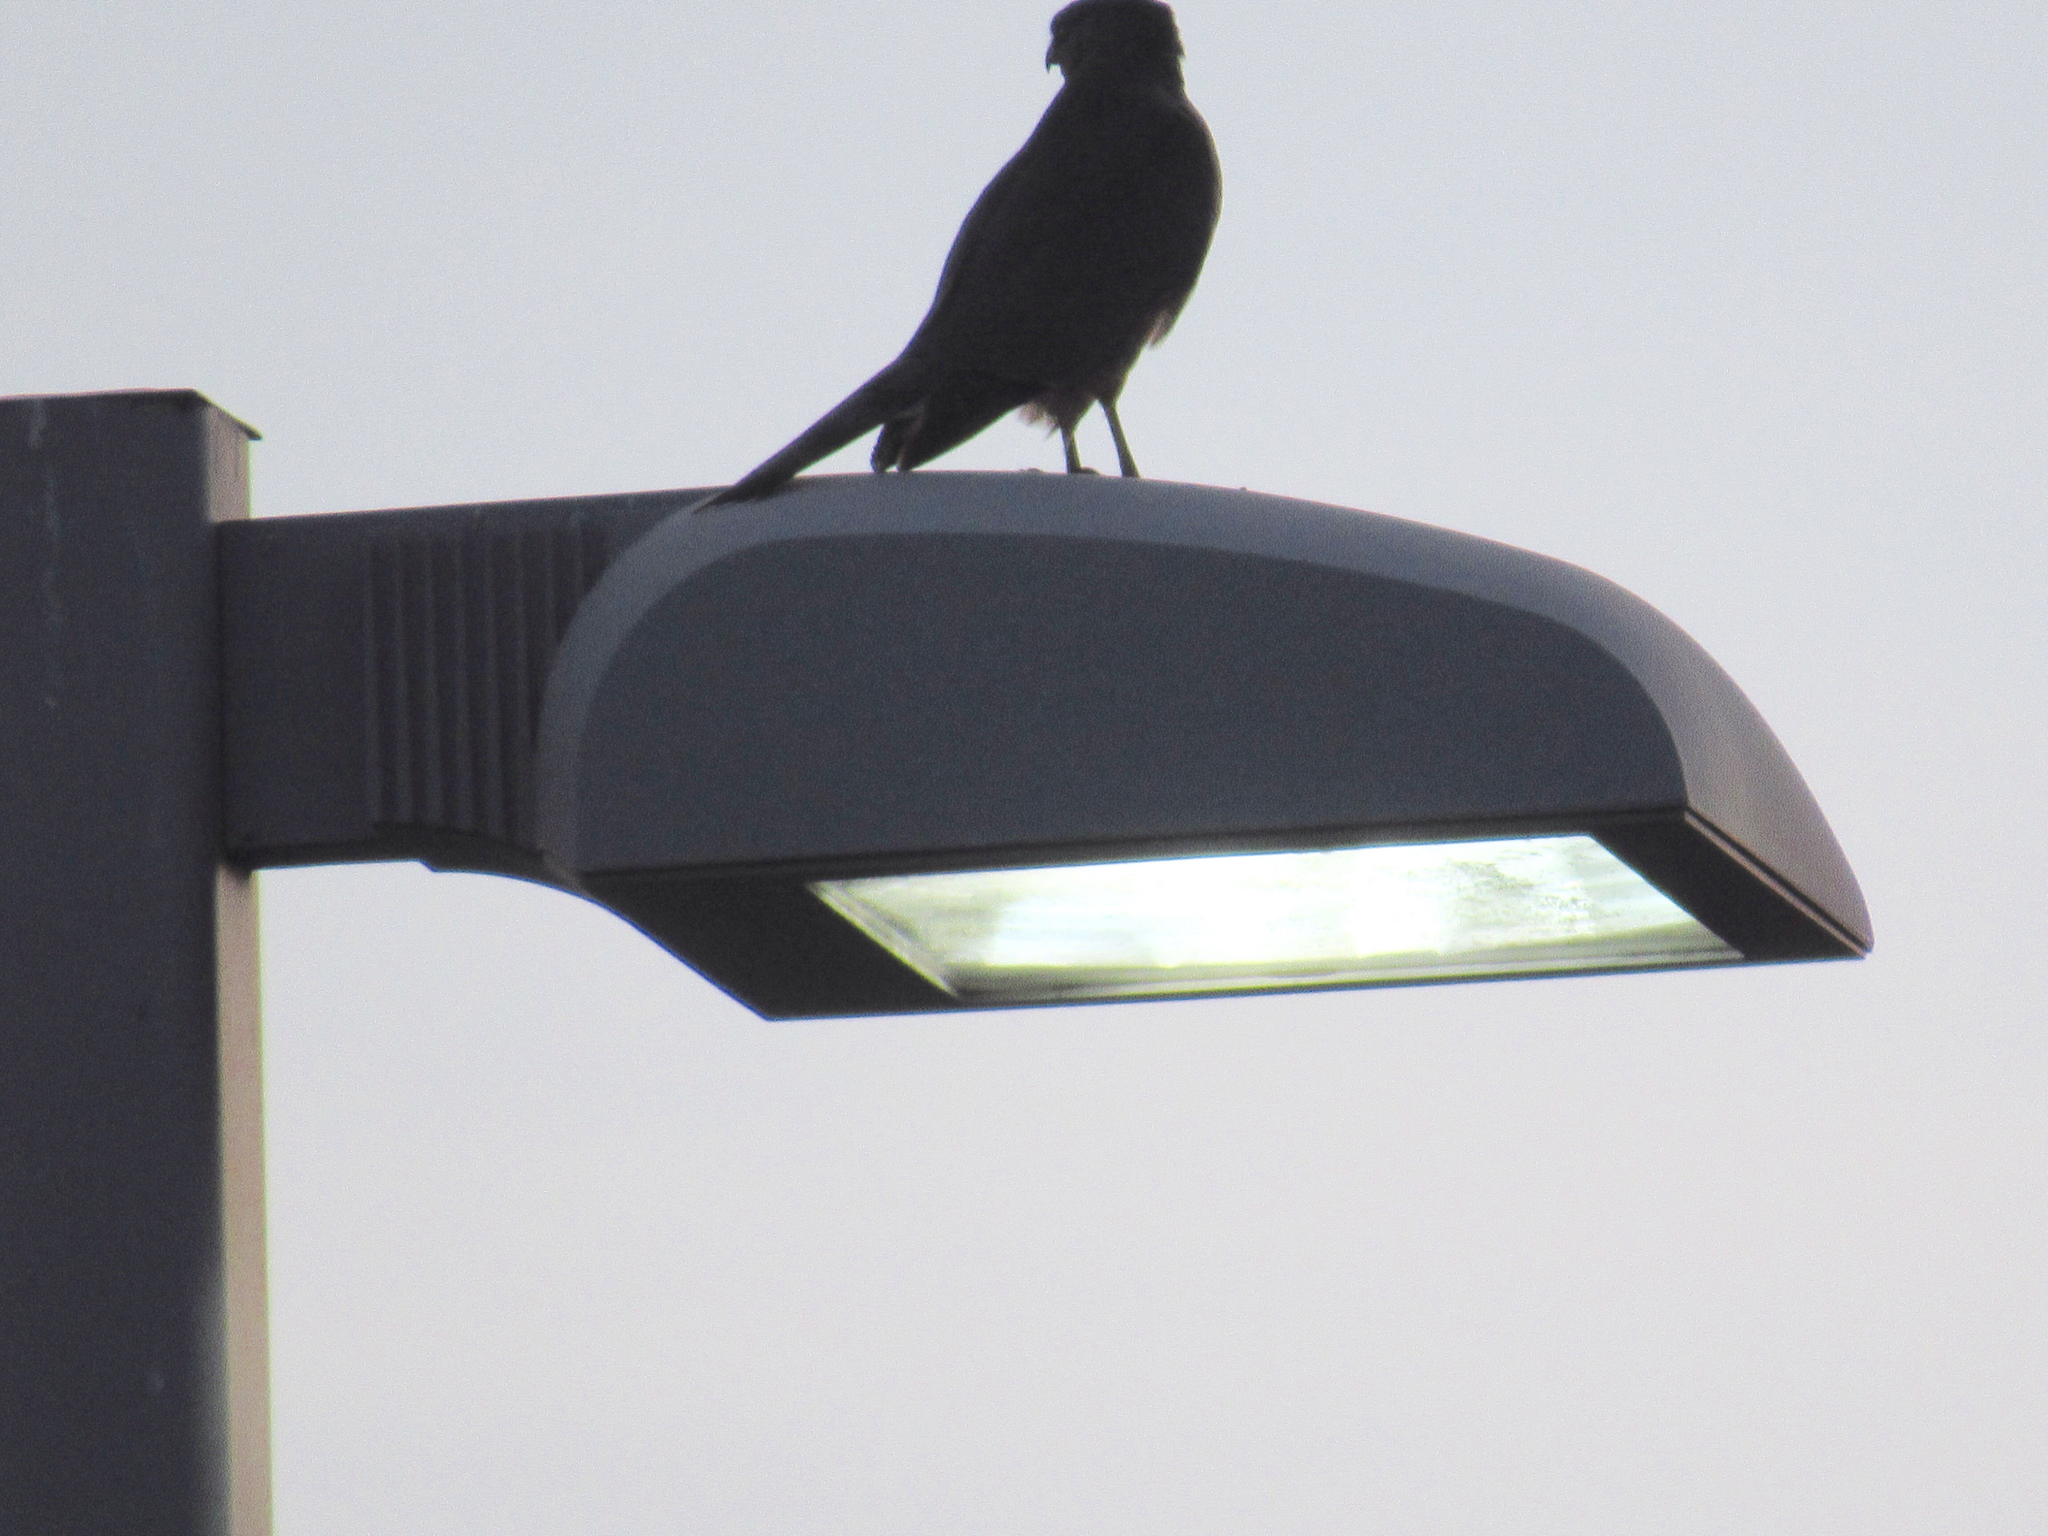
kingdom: Animalia
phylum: Chordata
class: Aves
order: Accipitriformes
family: Accipitridae
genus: Accipiter
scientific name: Accipiter striatus
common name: Sharp-shinned hawk
